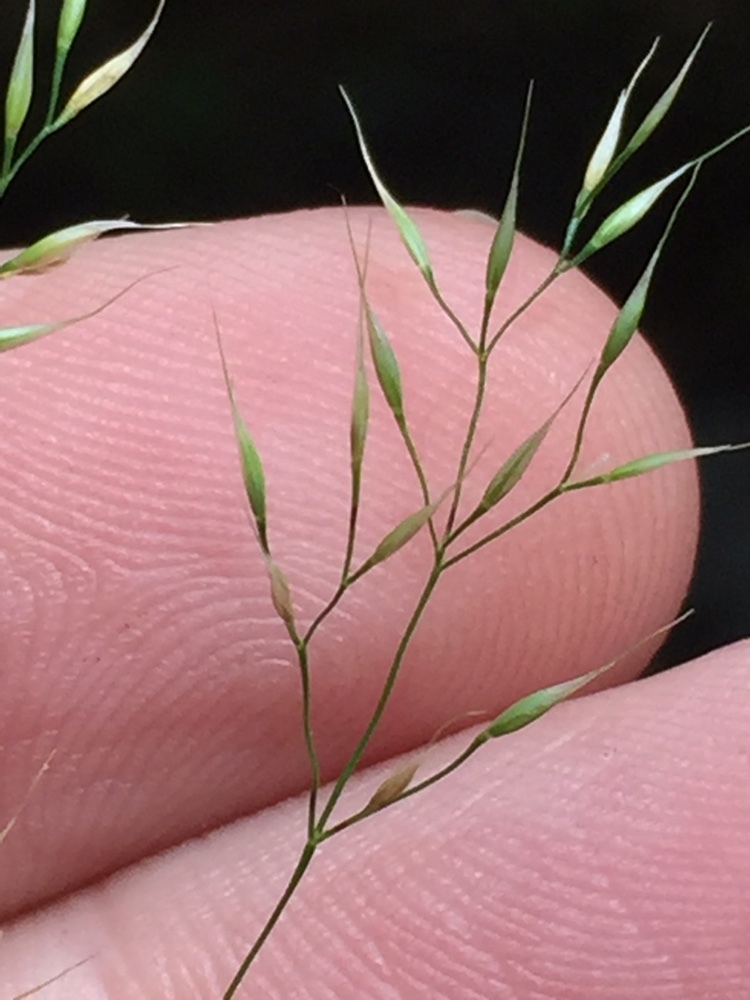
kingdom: Plantae
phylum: Tracheophyta
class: Liliopsida
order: Poales
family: Poaceae
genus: Arrhenatherum
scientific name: Arrhenatherum elatius
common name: Tall oatgrass
